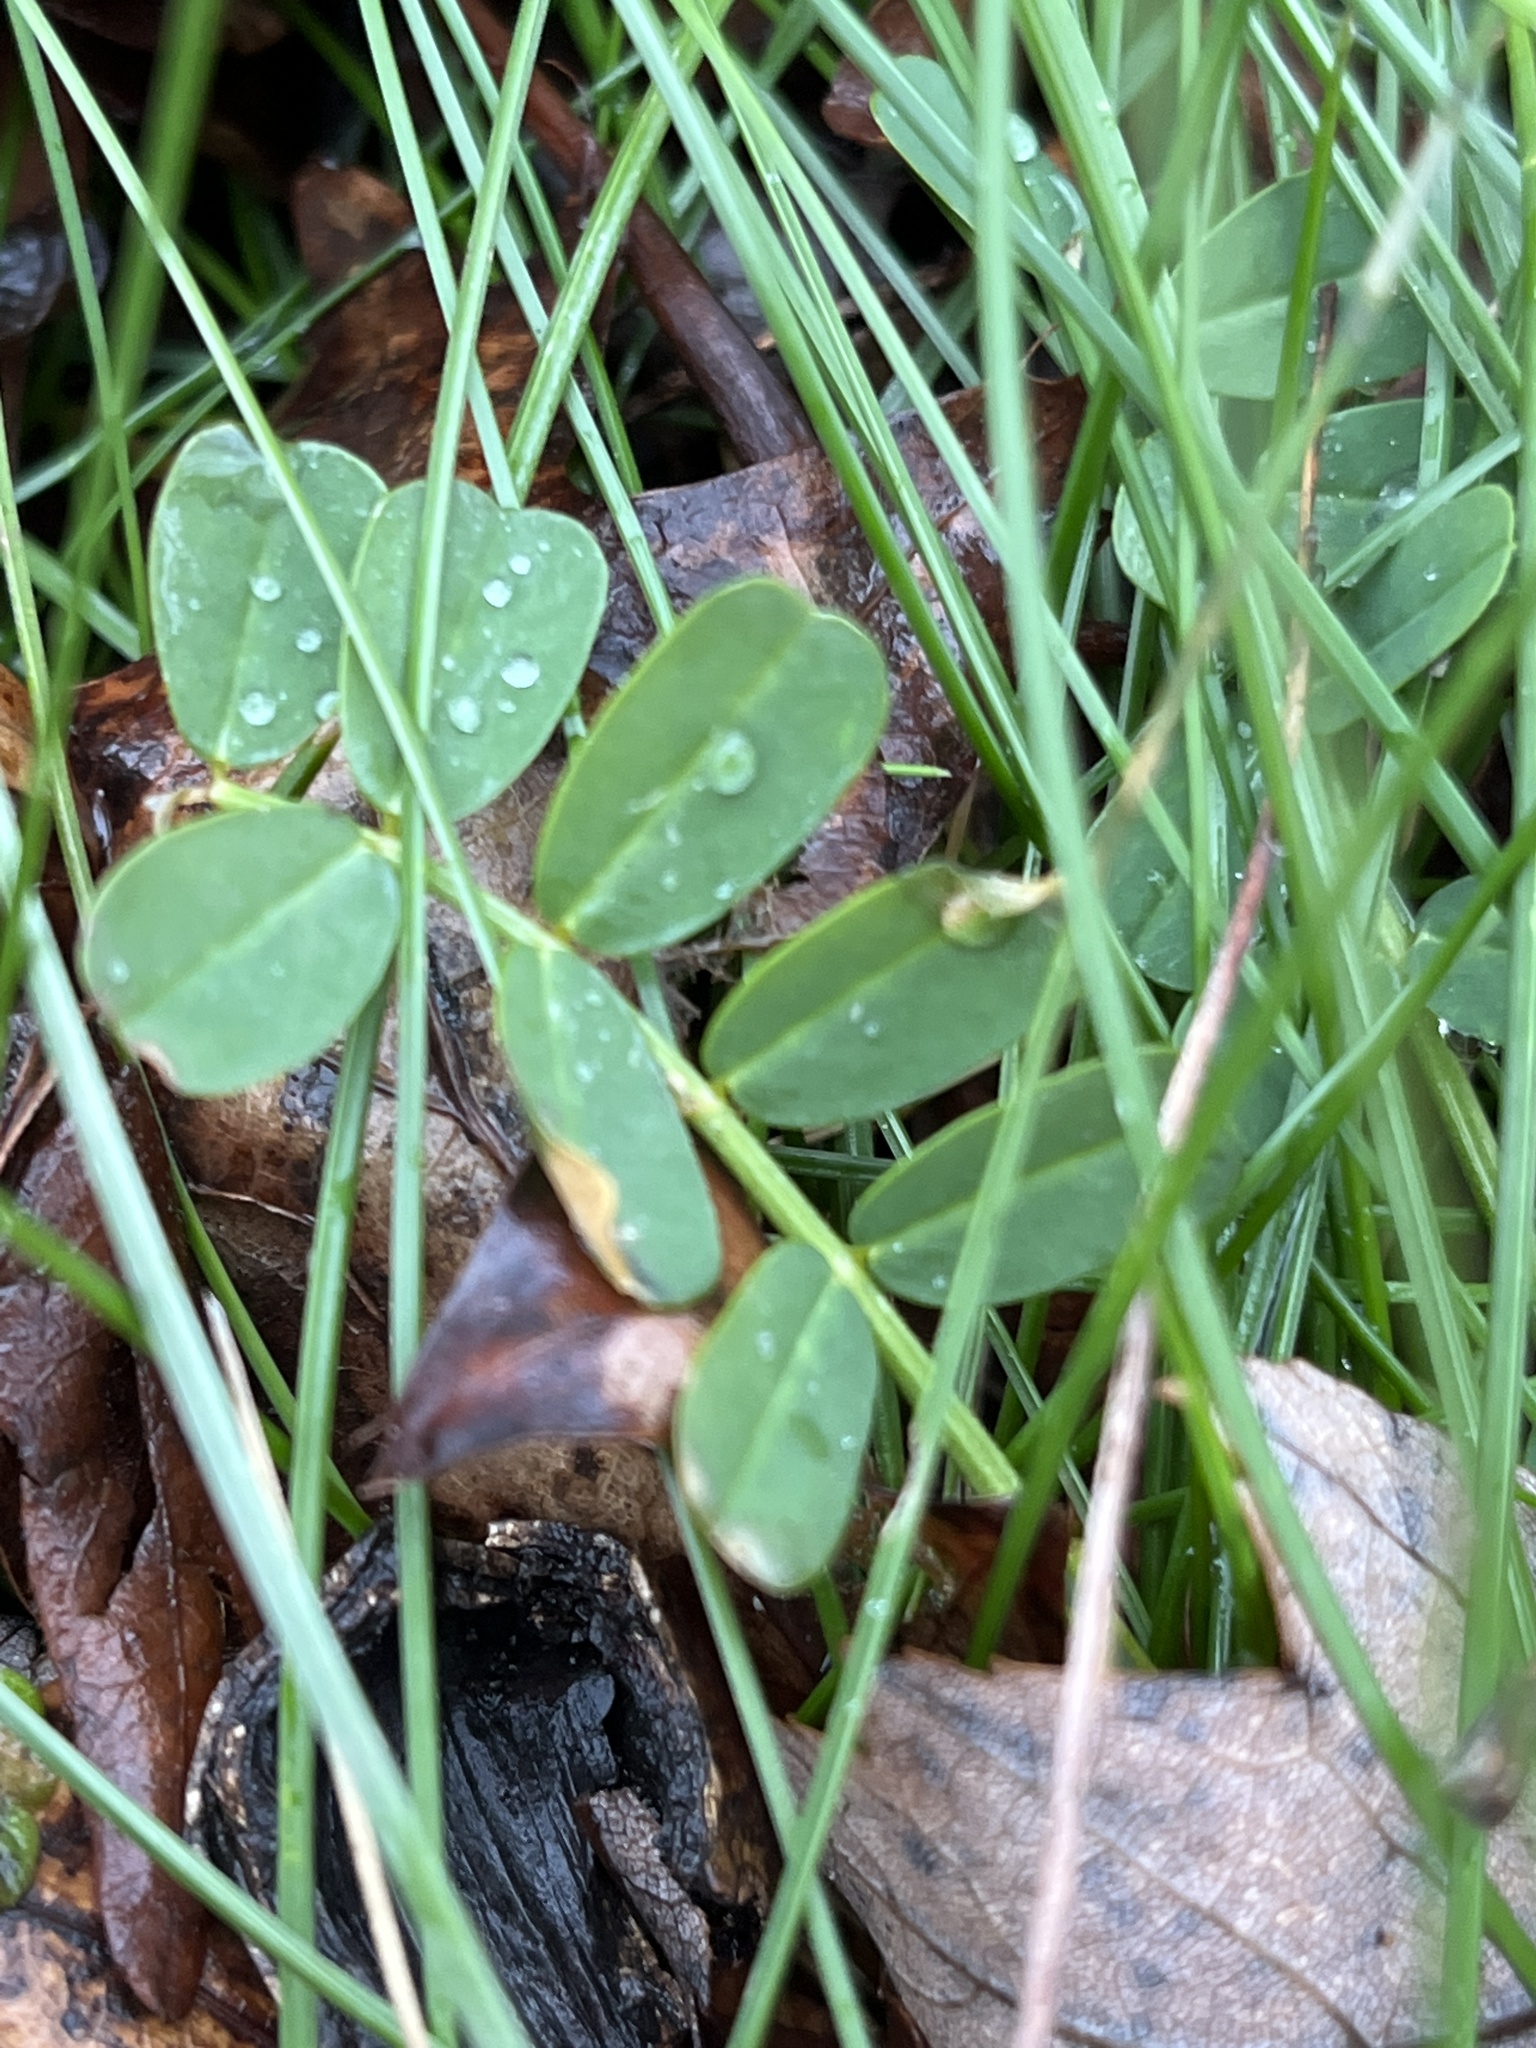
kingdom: Plantae
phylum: Tracheophyta
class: Magnoliopsida
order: Fabales
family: Fabaceae
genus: Coronilla
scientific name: Coronilla varia
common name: Crownvetch
